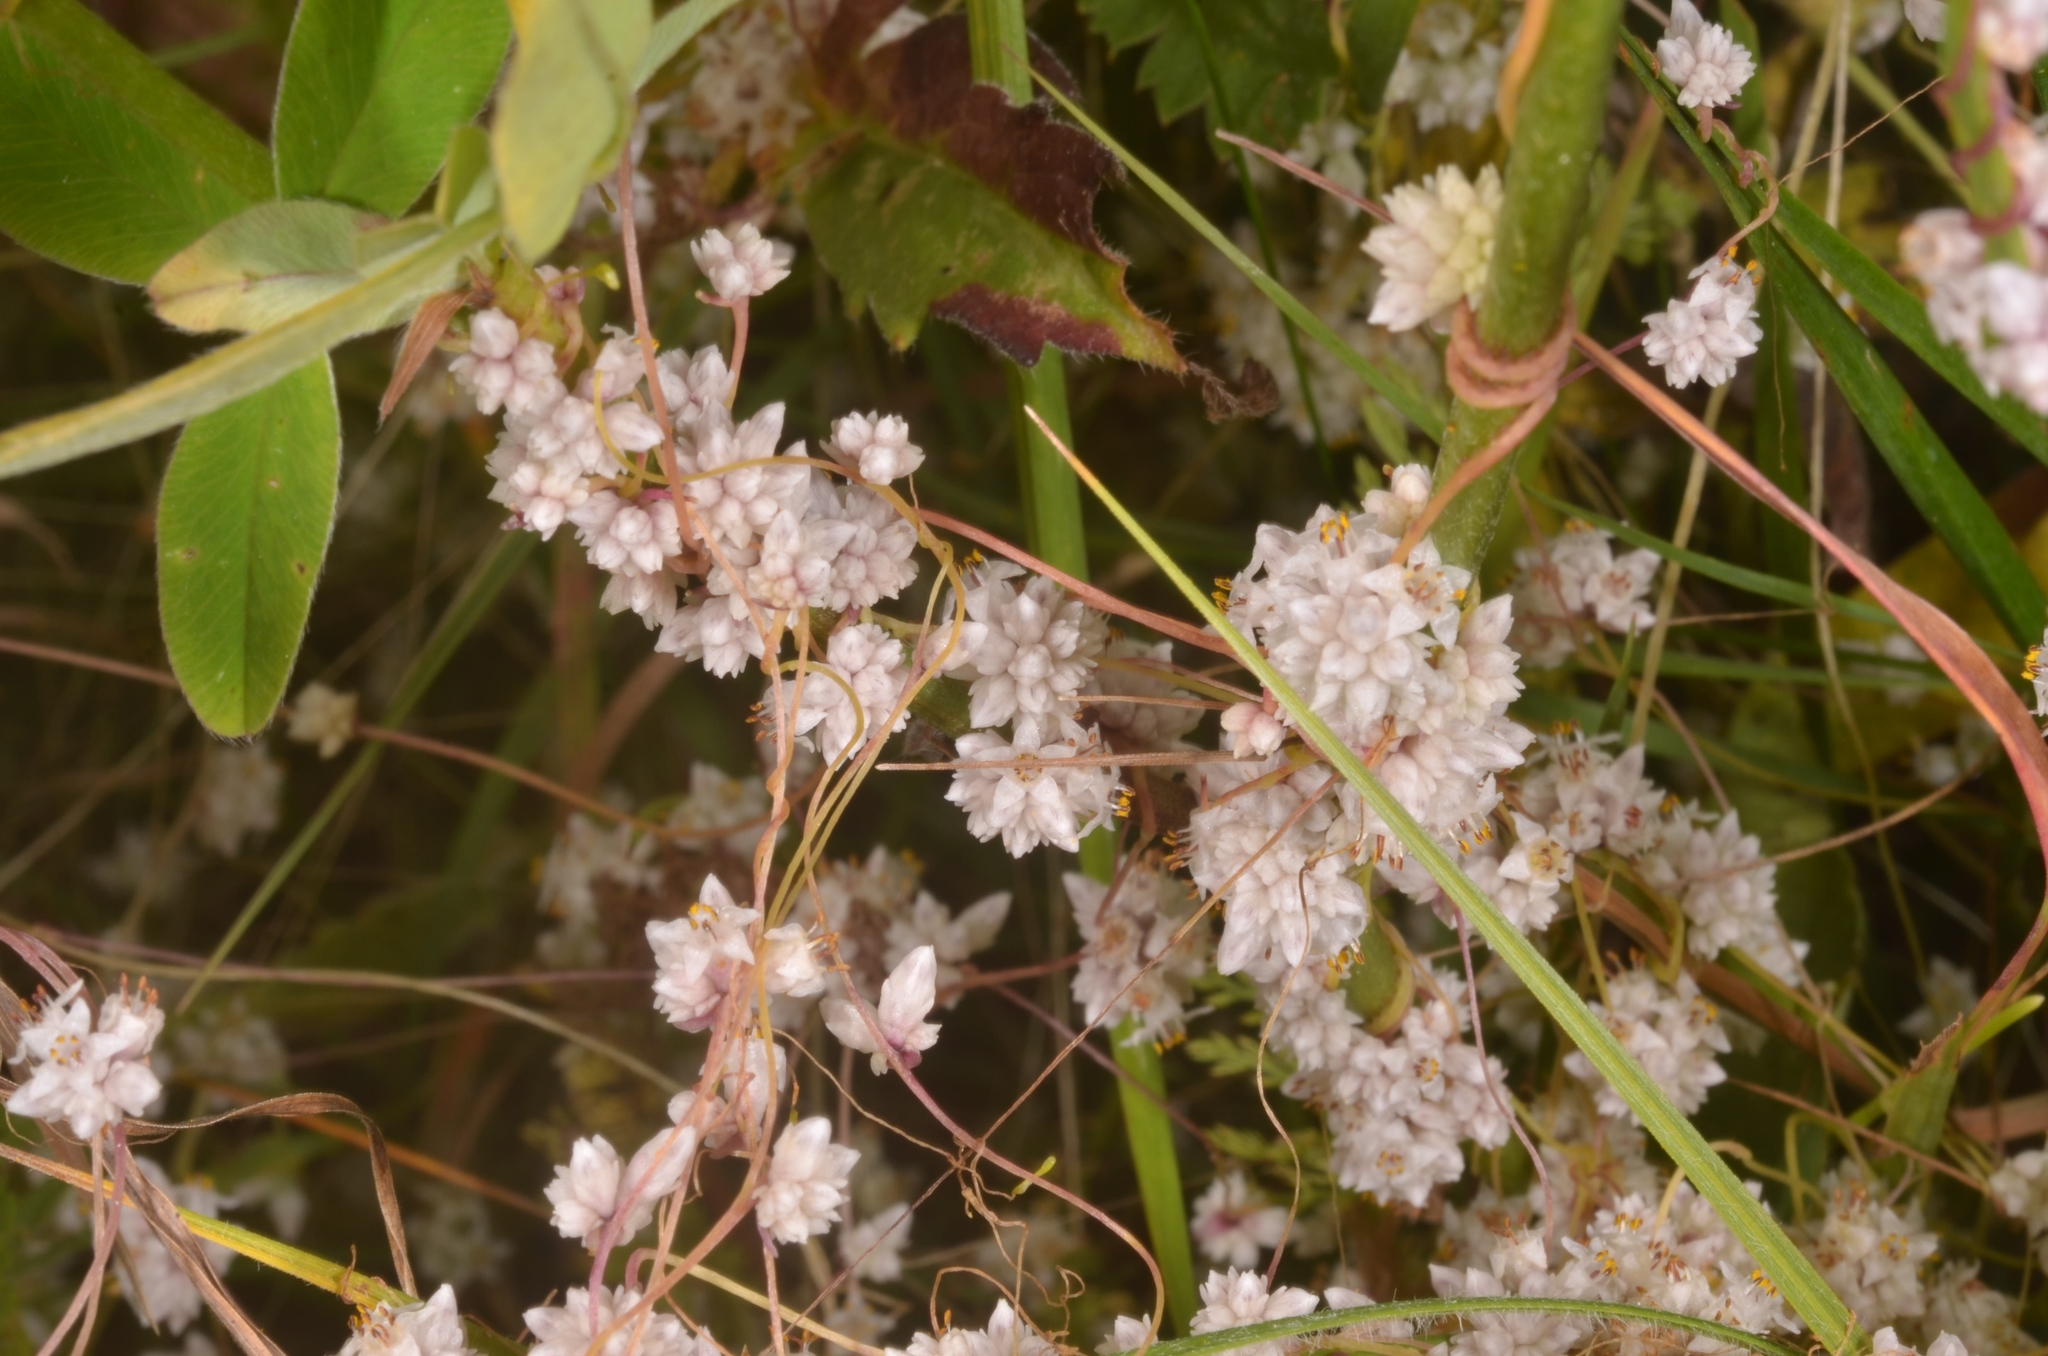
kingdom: Plantae
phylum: Tracheophyta
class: Magnoliopsida
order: Solanales
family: Convolvulaceae
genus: Cuscuta
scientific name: Cuscuta epithymum
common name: Clover dodder
